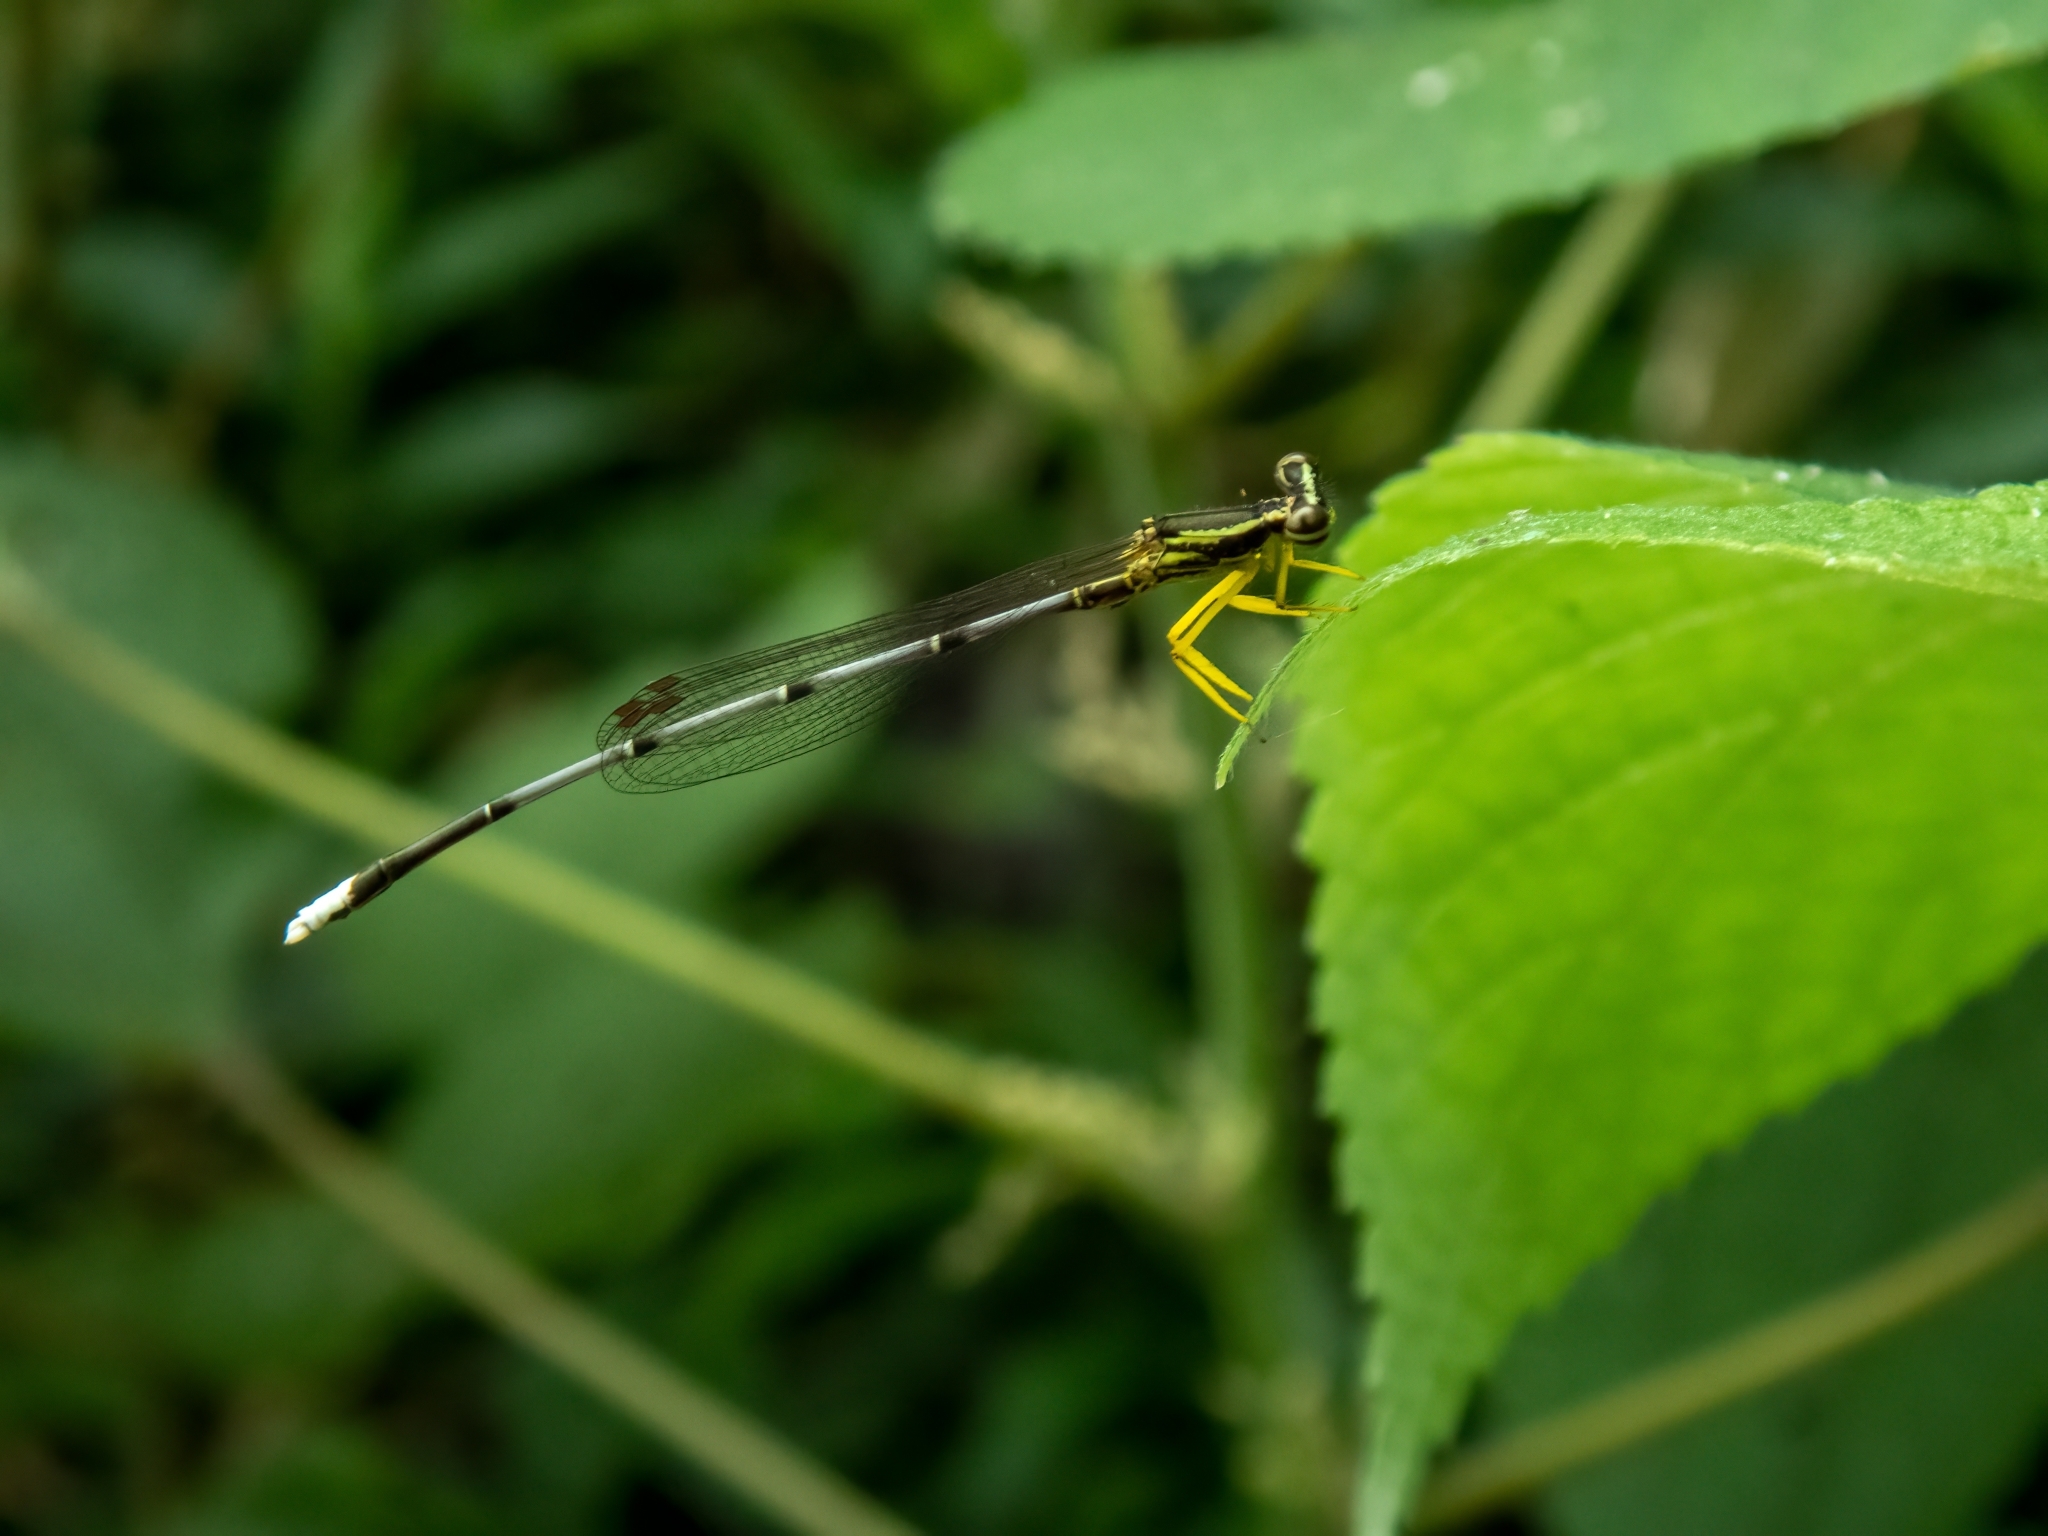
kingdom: Animalia
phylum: Arthropoda
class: Insecta
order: Odonata
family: Platycnemididae
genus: Copera
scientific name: Copera marginipes
